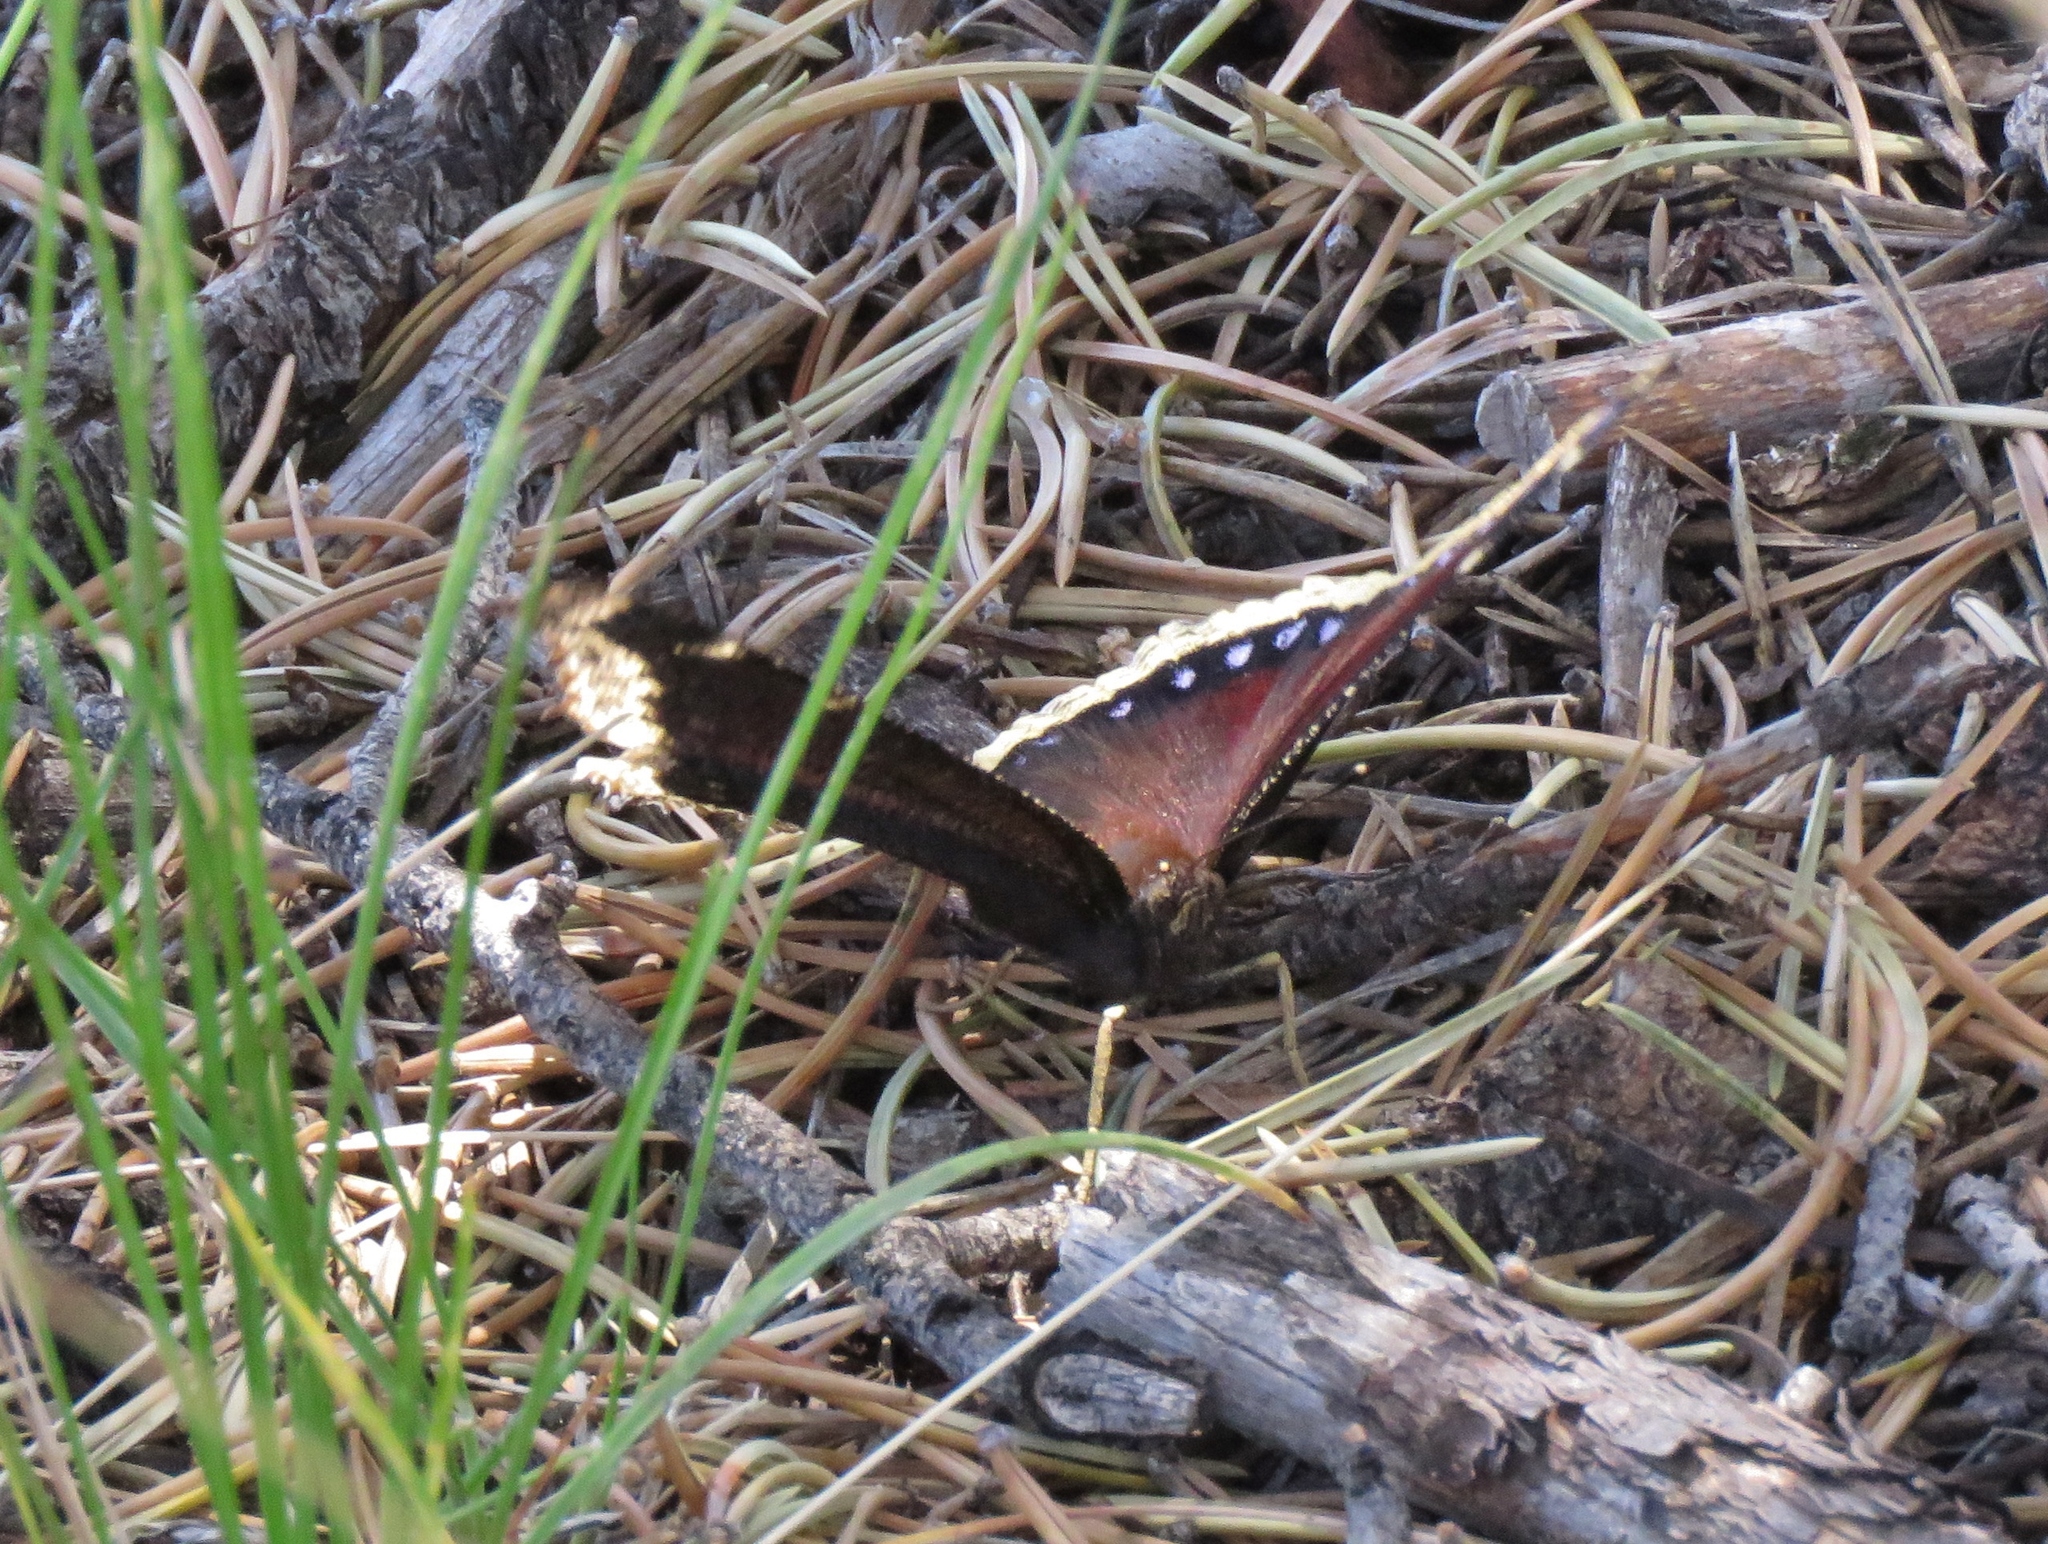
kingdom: Animalia
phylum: Arthropoda
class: Insecta
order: Lepidoptera
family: Nymphalidae
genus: Nymphalis
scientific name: Nymphalis antiopa
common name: Camberwell beauty
